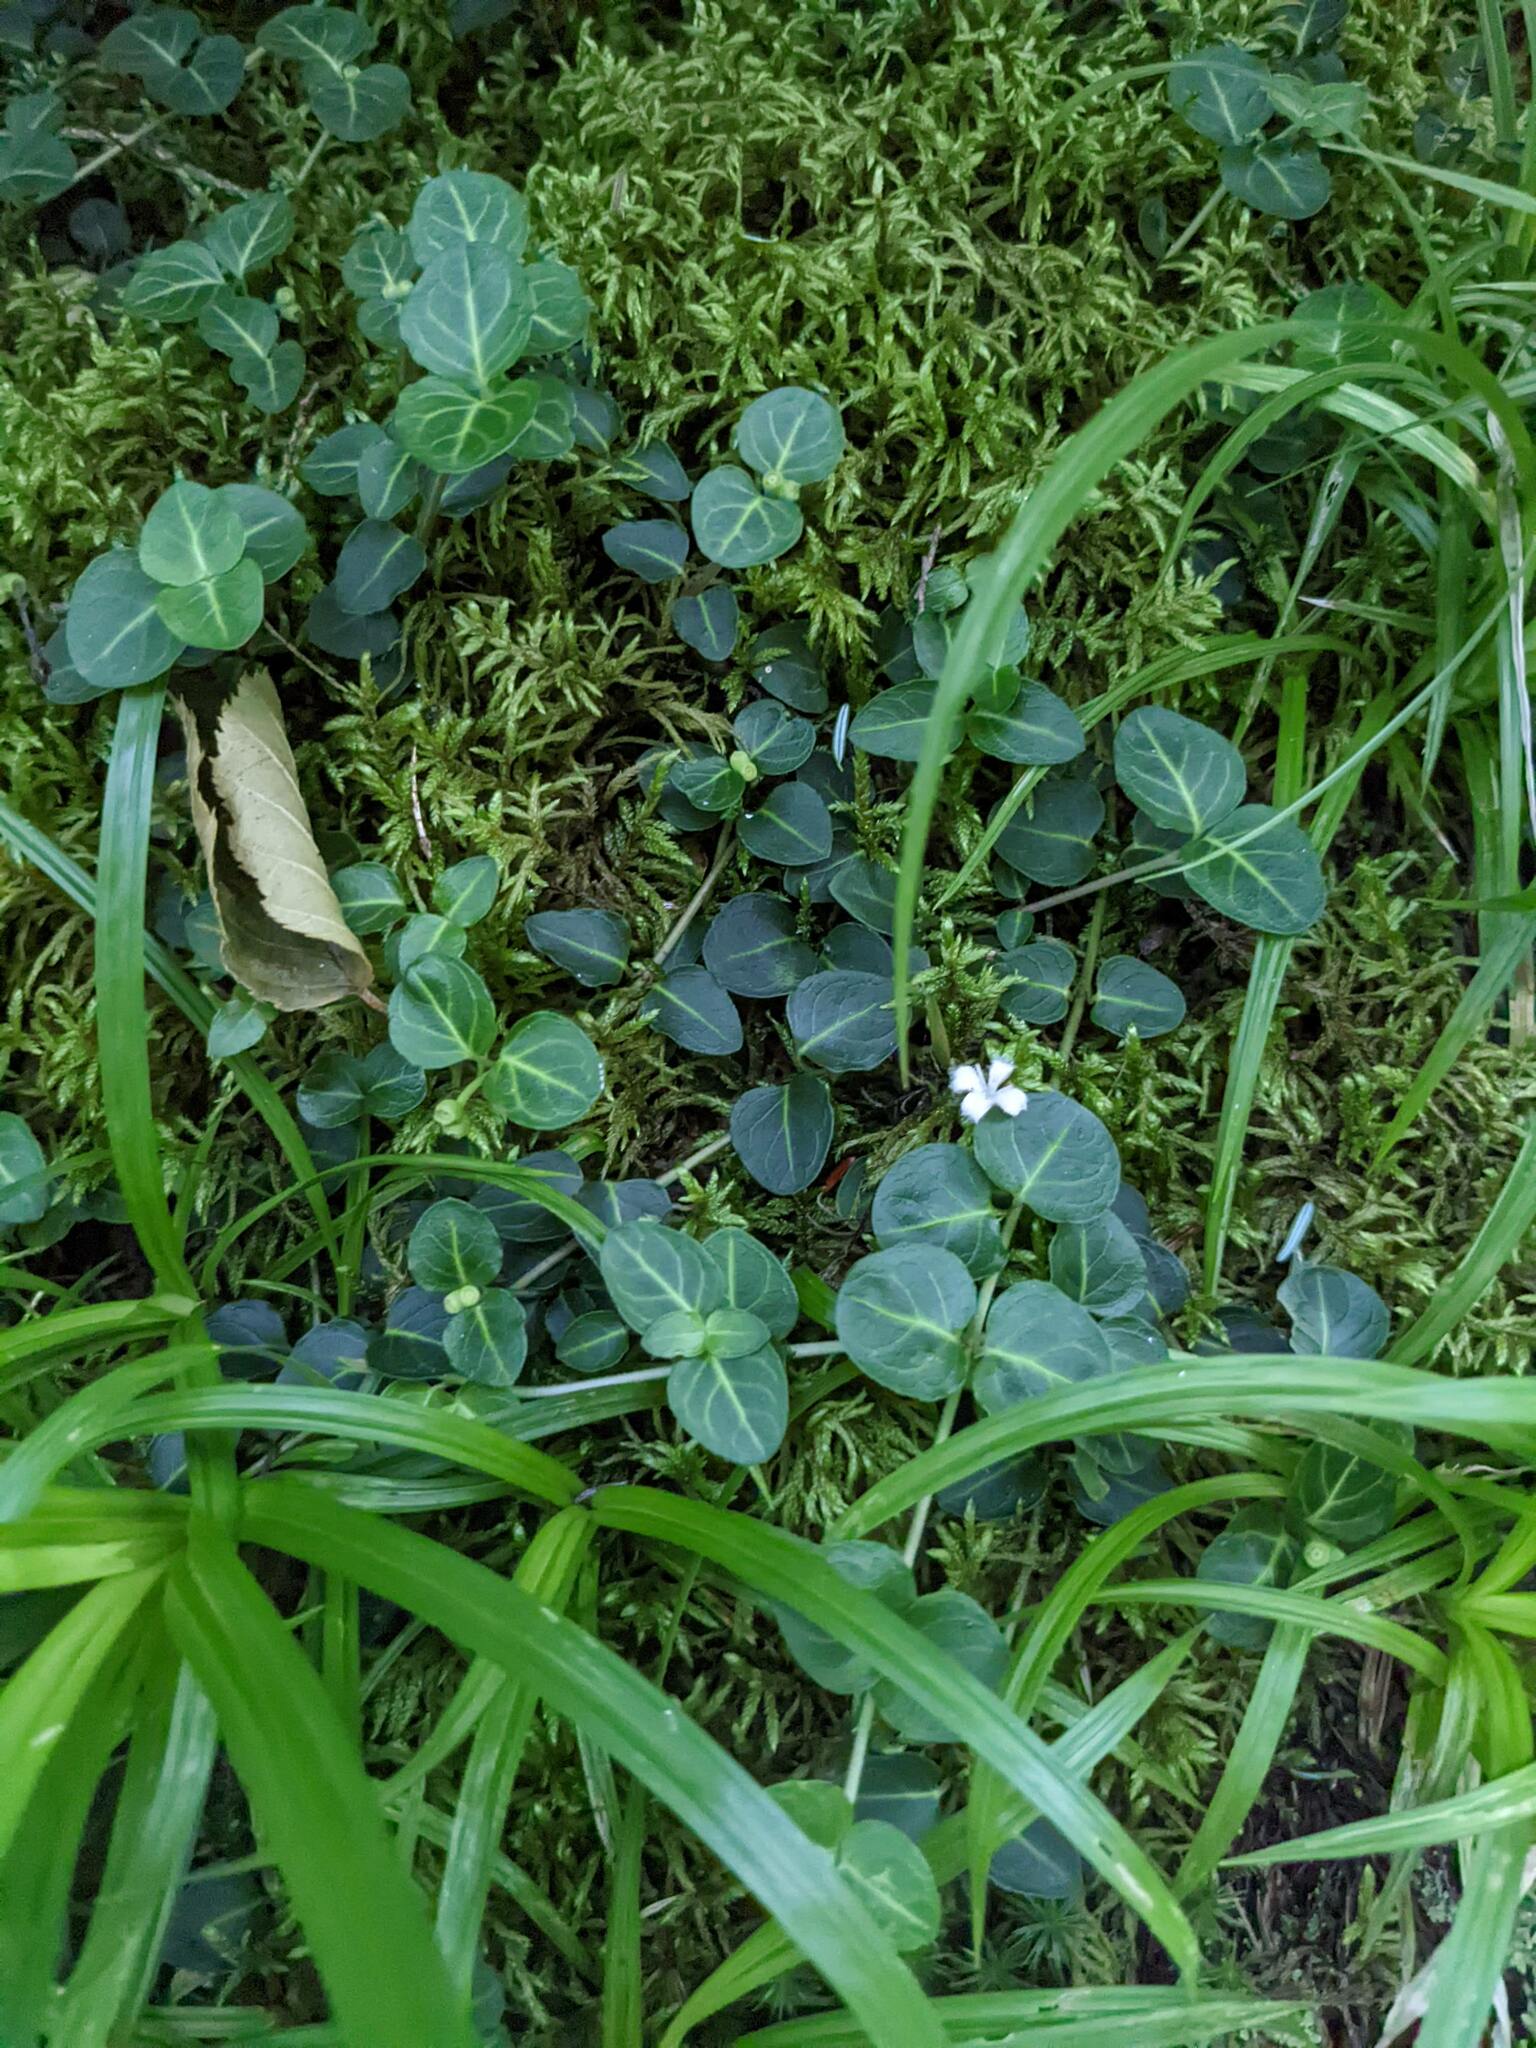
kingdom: Plantae
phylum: Tracheophyta
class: Magnoliopsida
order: Gentianales
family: Rubiaceae
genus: Mitchella
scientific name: Mitchella repens
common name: Partridge-berry
